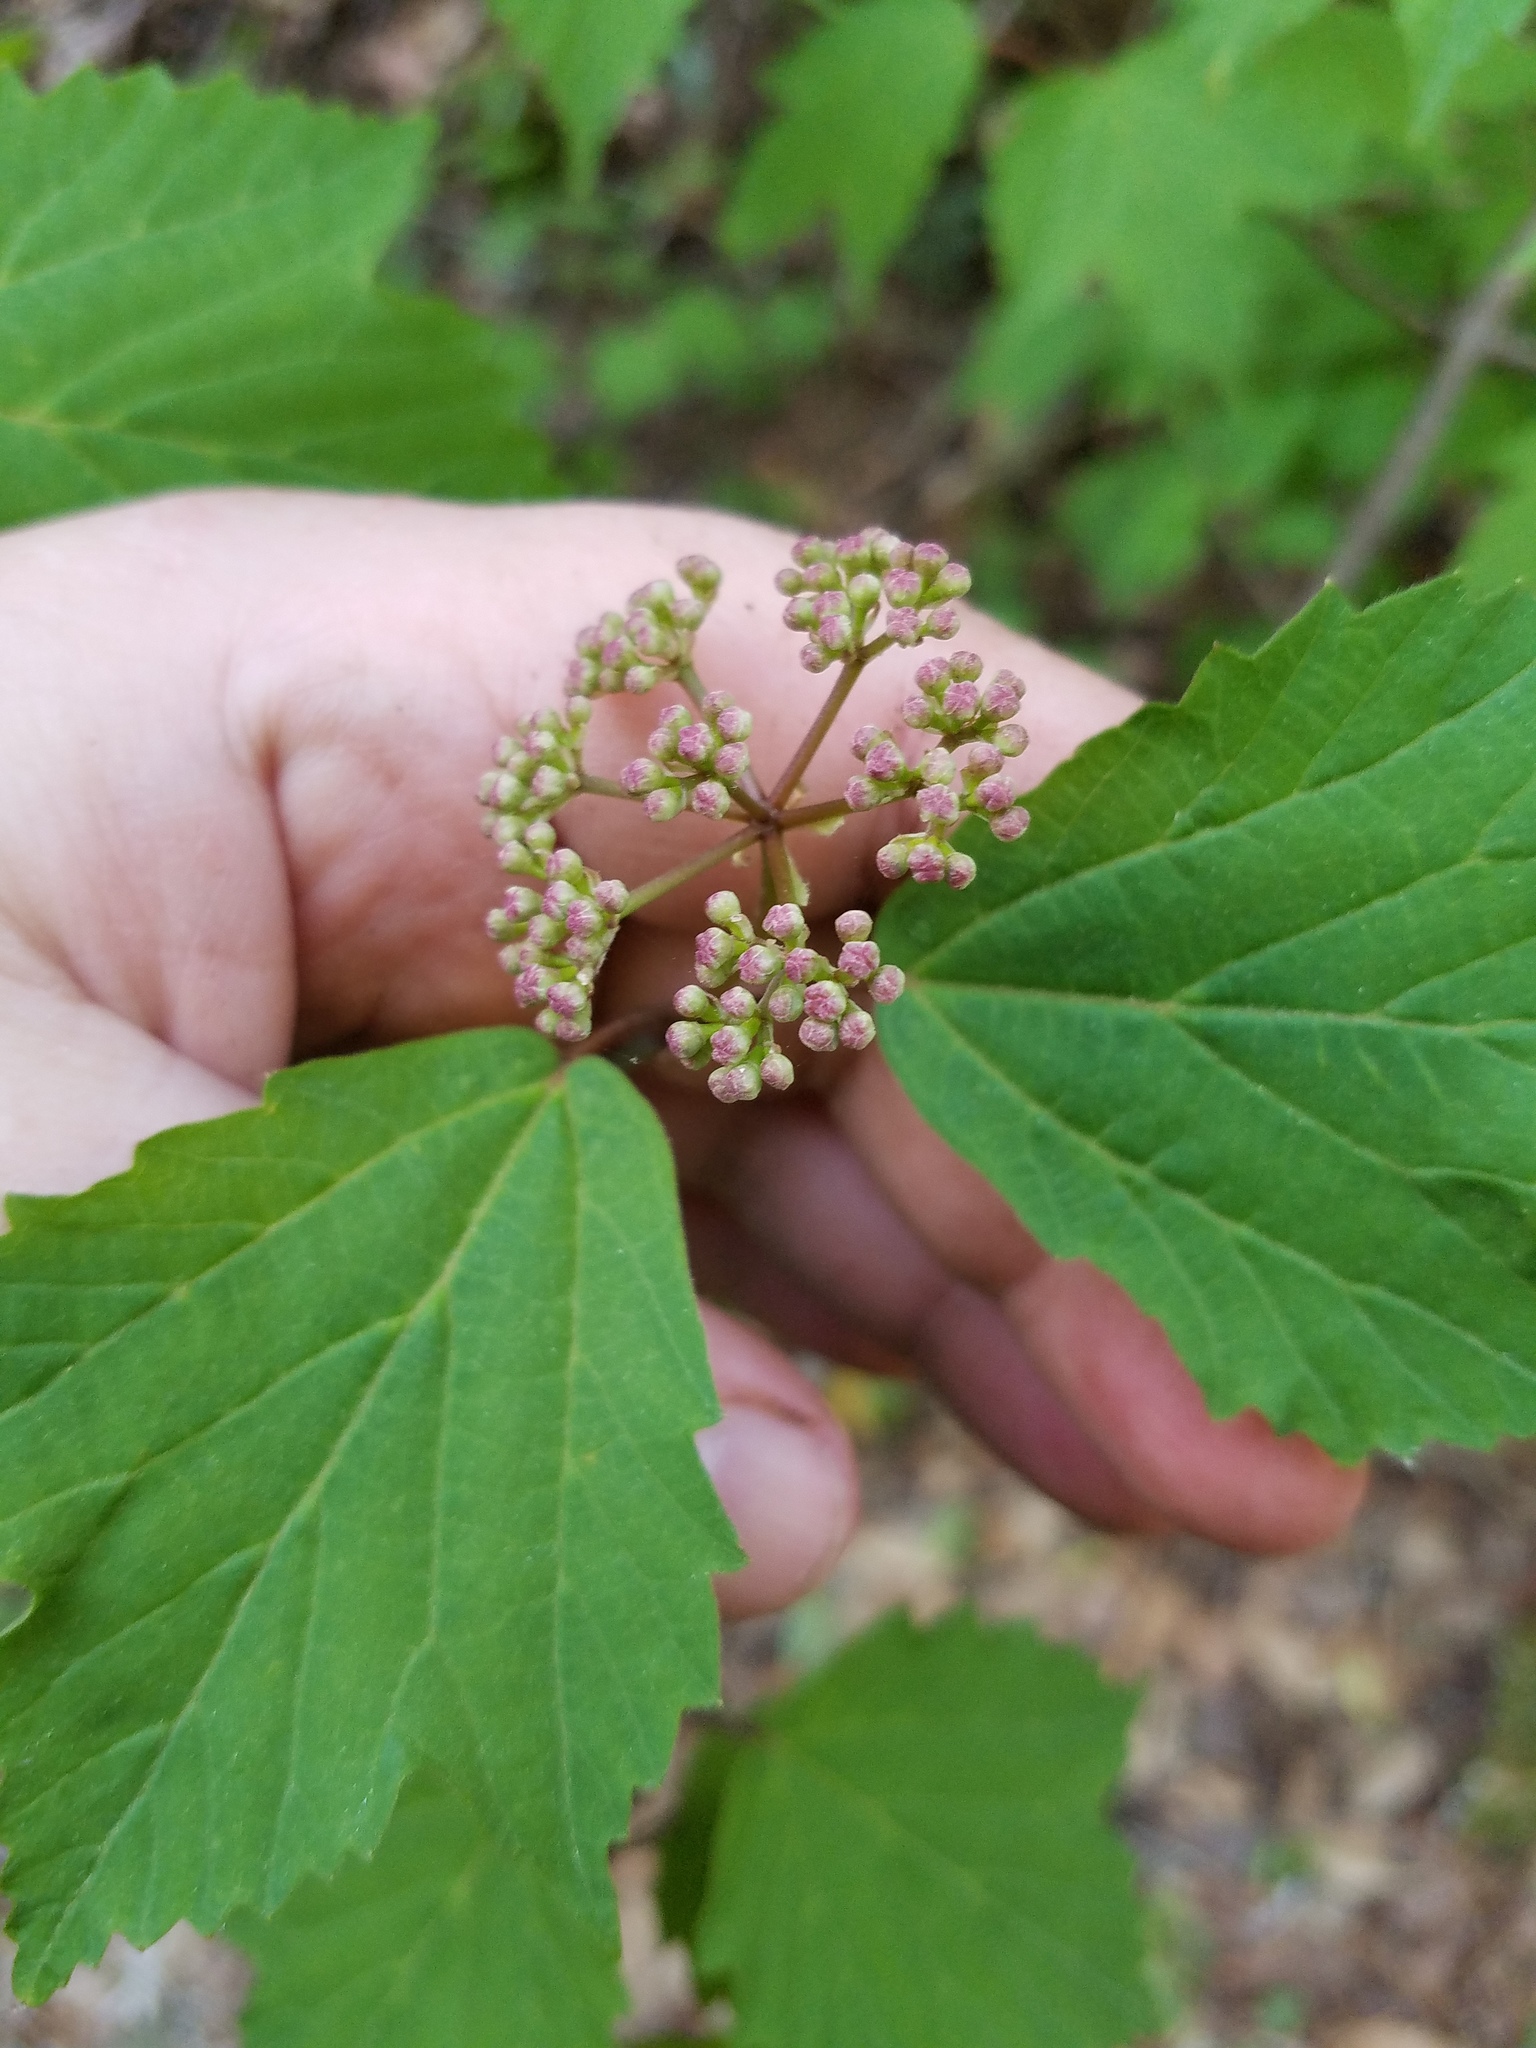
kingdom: Plantae
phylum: Tracheophyta
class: Magnoliopsida
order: Dipsacales
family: Viburnaceae
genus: Viburnum
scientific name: Viburnum acerifolium
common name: Dockmackie
